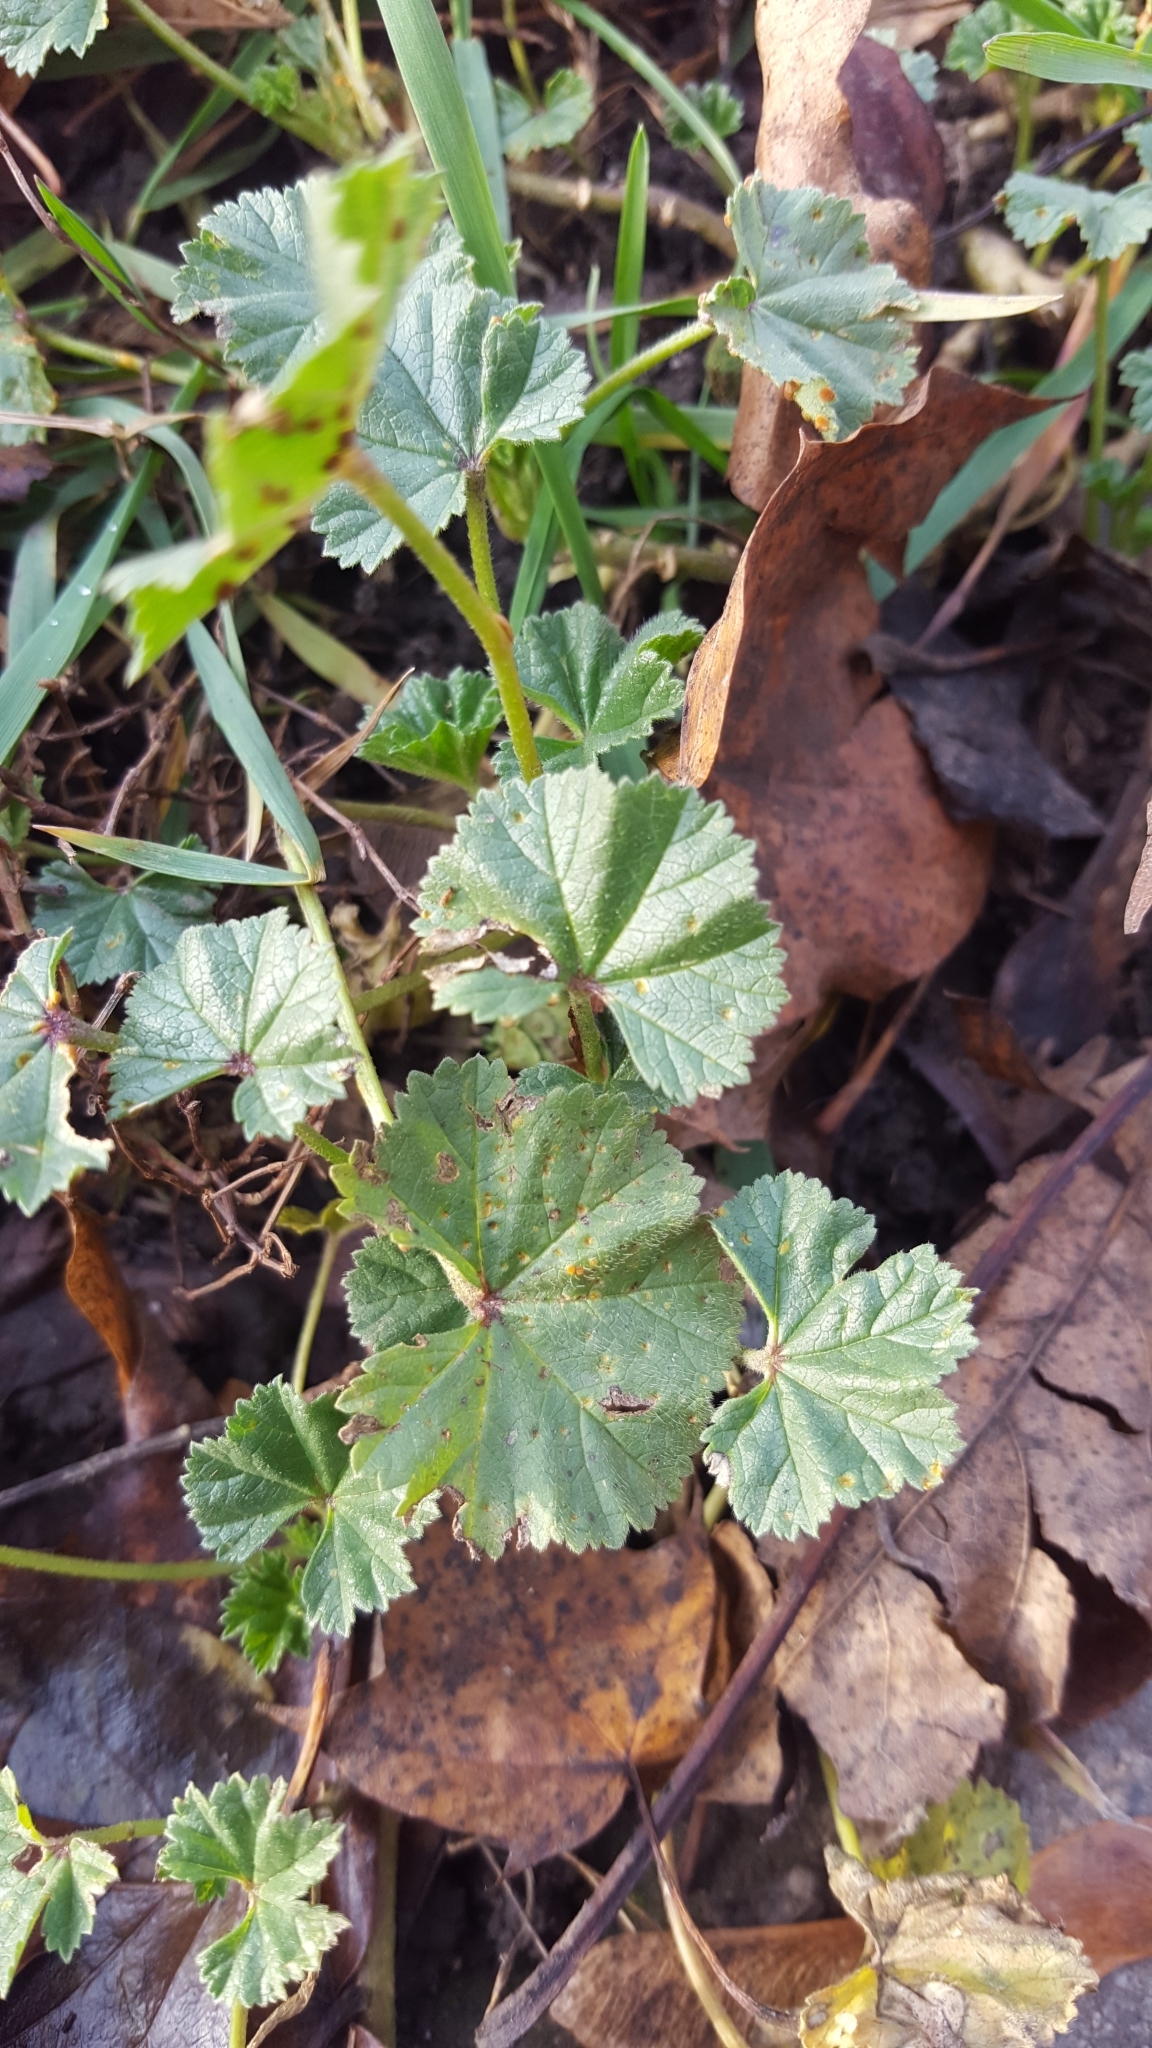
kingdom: Plantae
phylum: Tracheophyta
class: Magnoliopsida
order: Malvales
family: Malvaceae
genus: Malva
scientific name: Malva neglecta
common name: Common mallow
